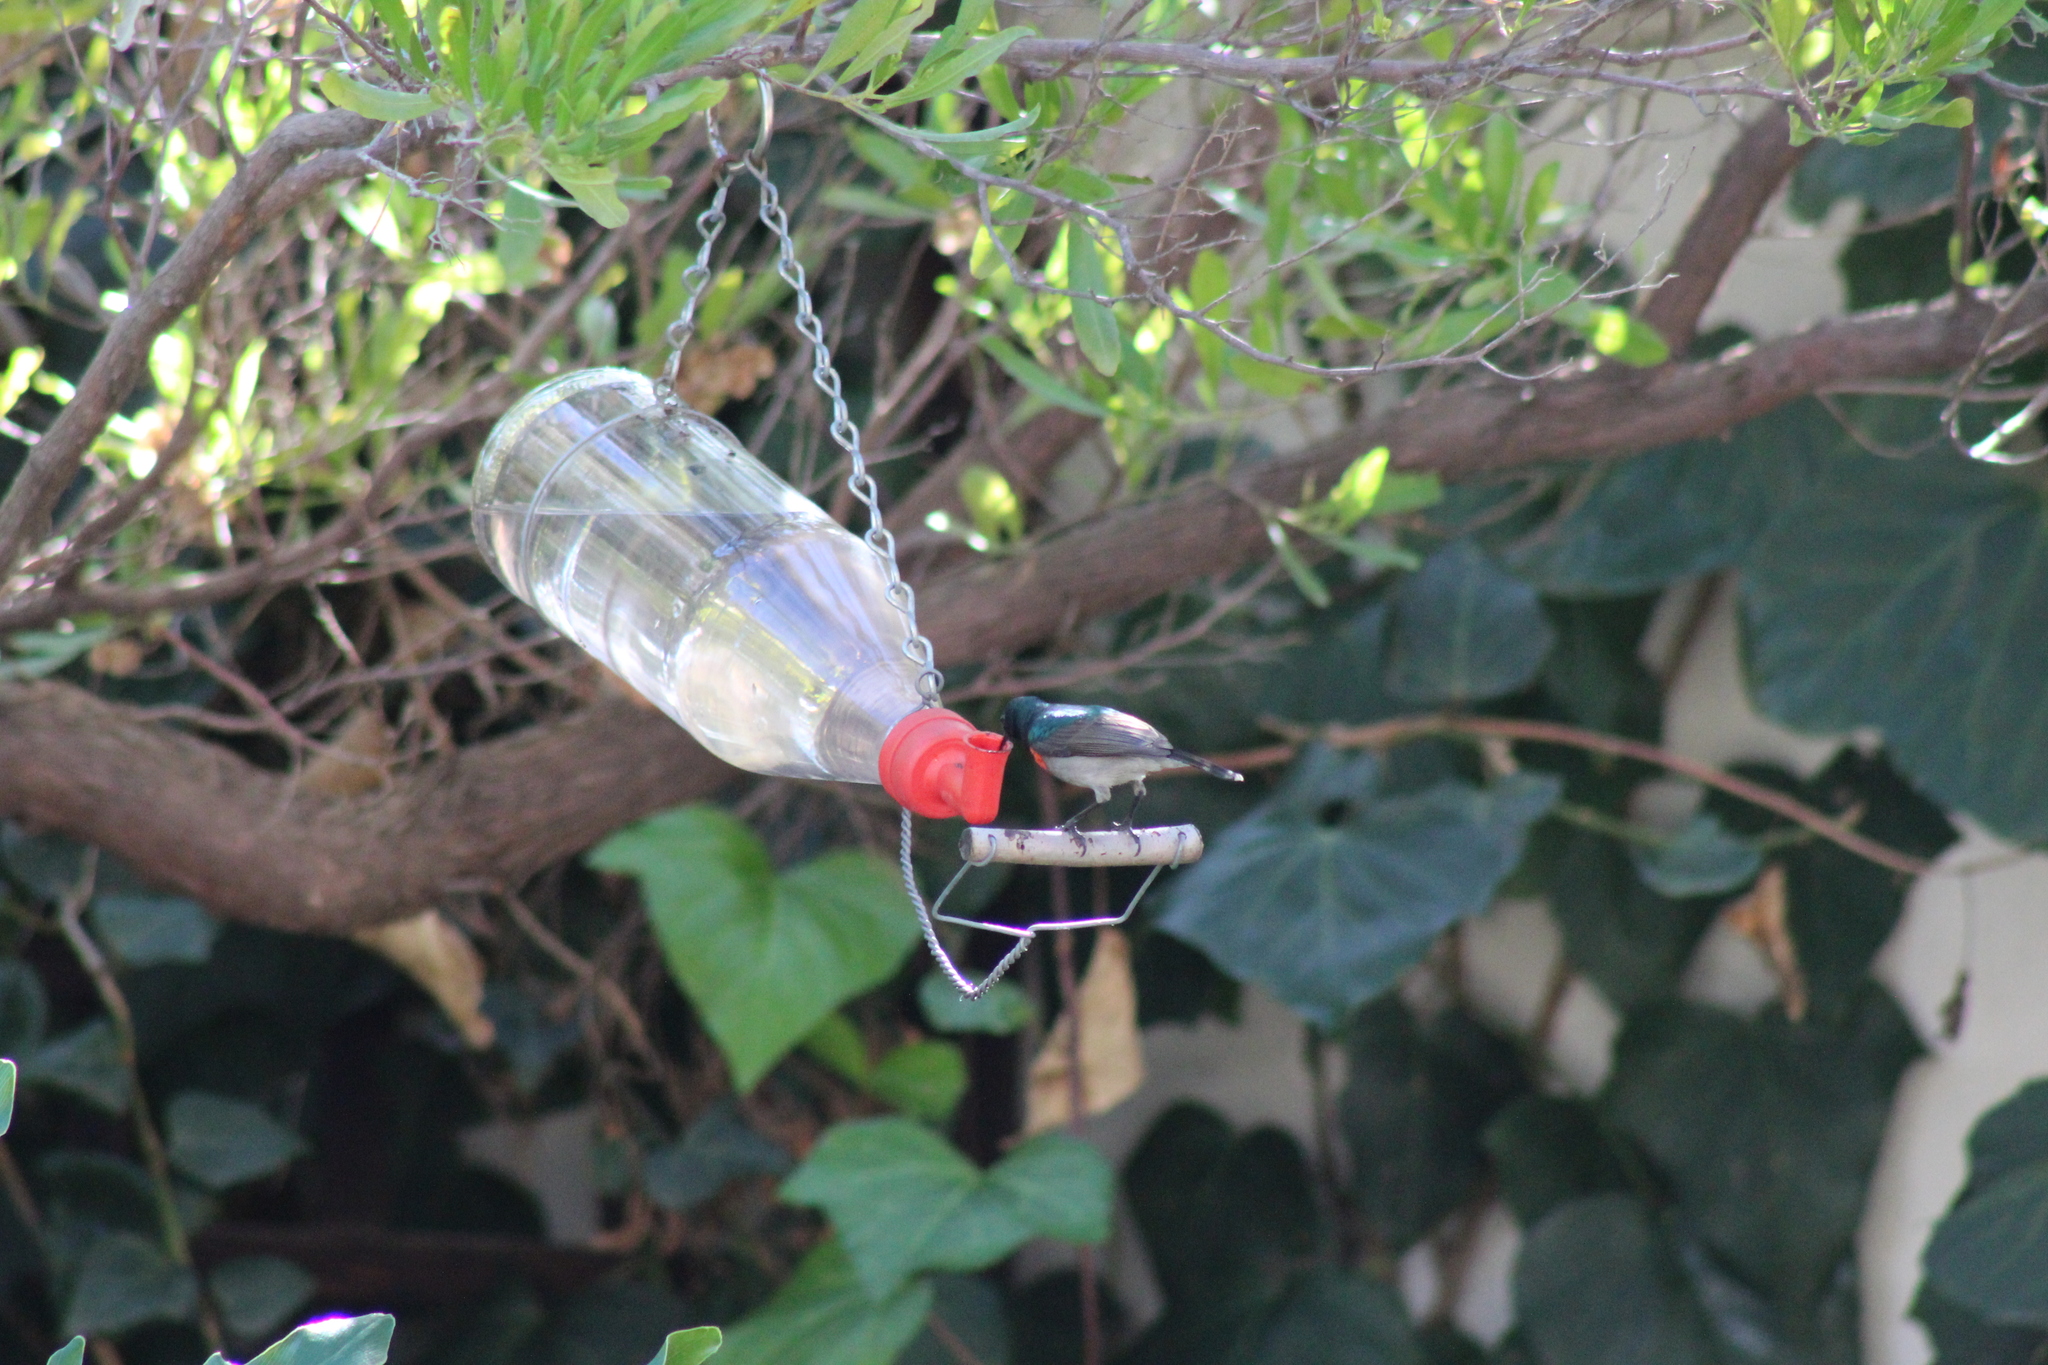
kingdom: Animalia
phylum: Chordata
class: Aves
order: Passeriformes
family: Nectariniidae
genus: Cinnyris
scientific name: Cinnyris chalybeus
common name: Southern double-collared sunbird
